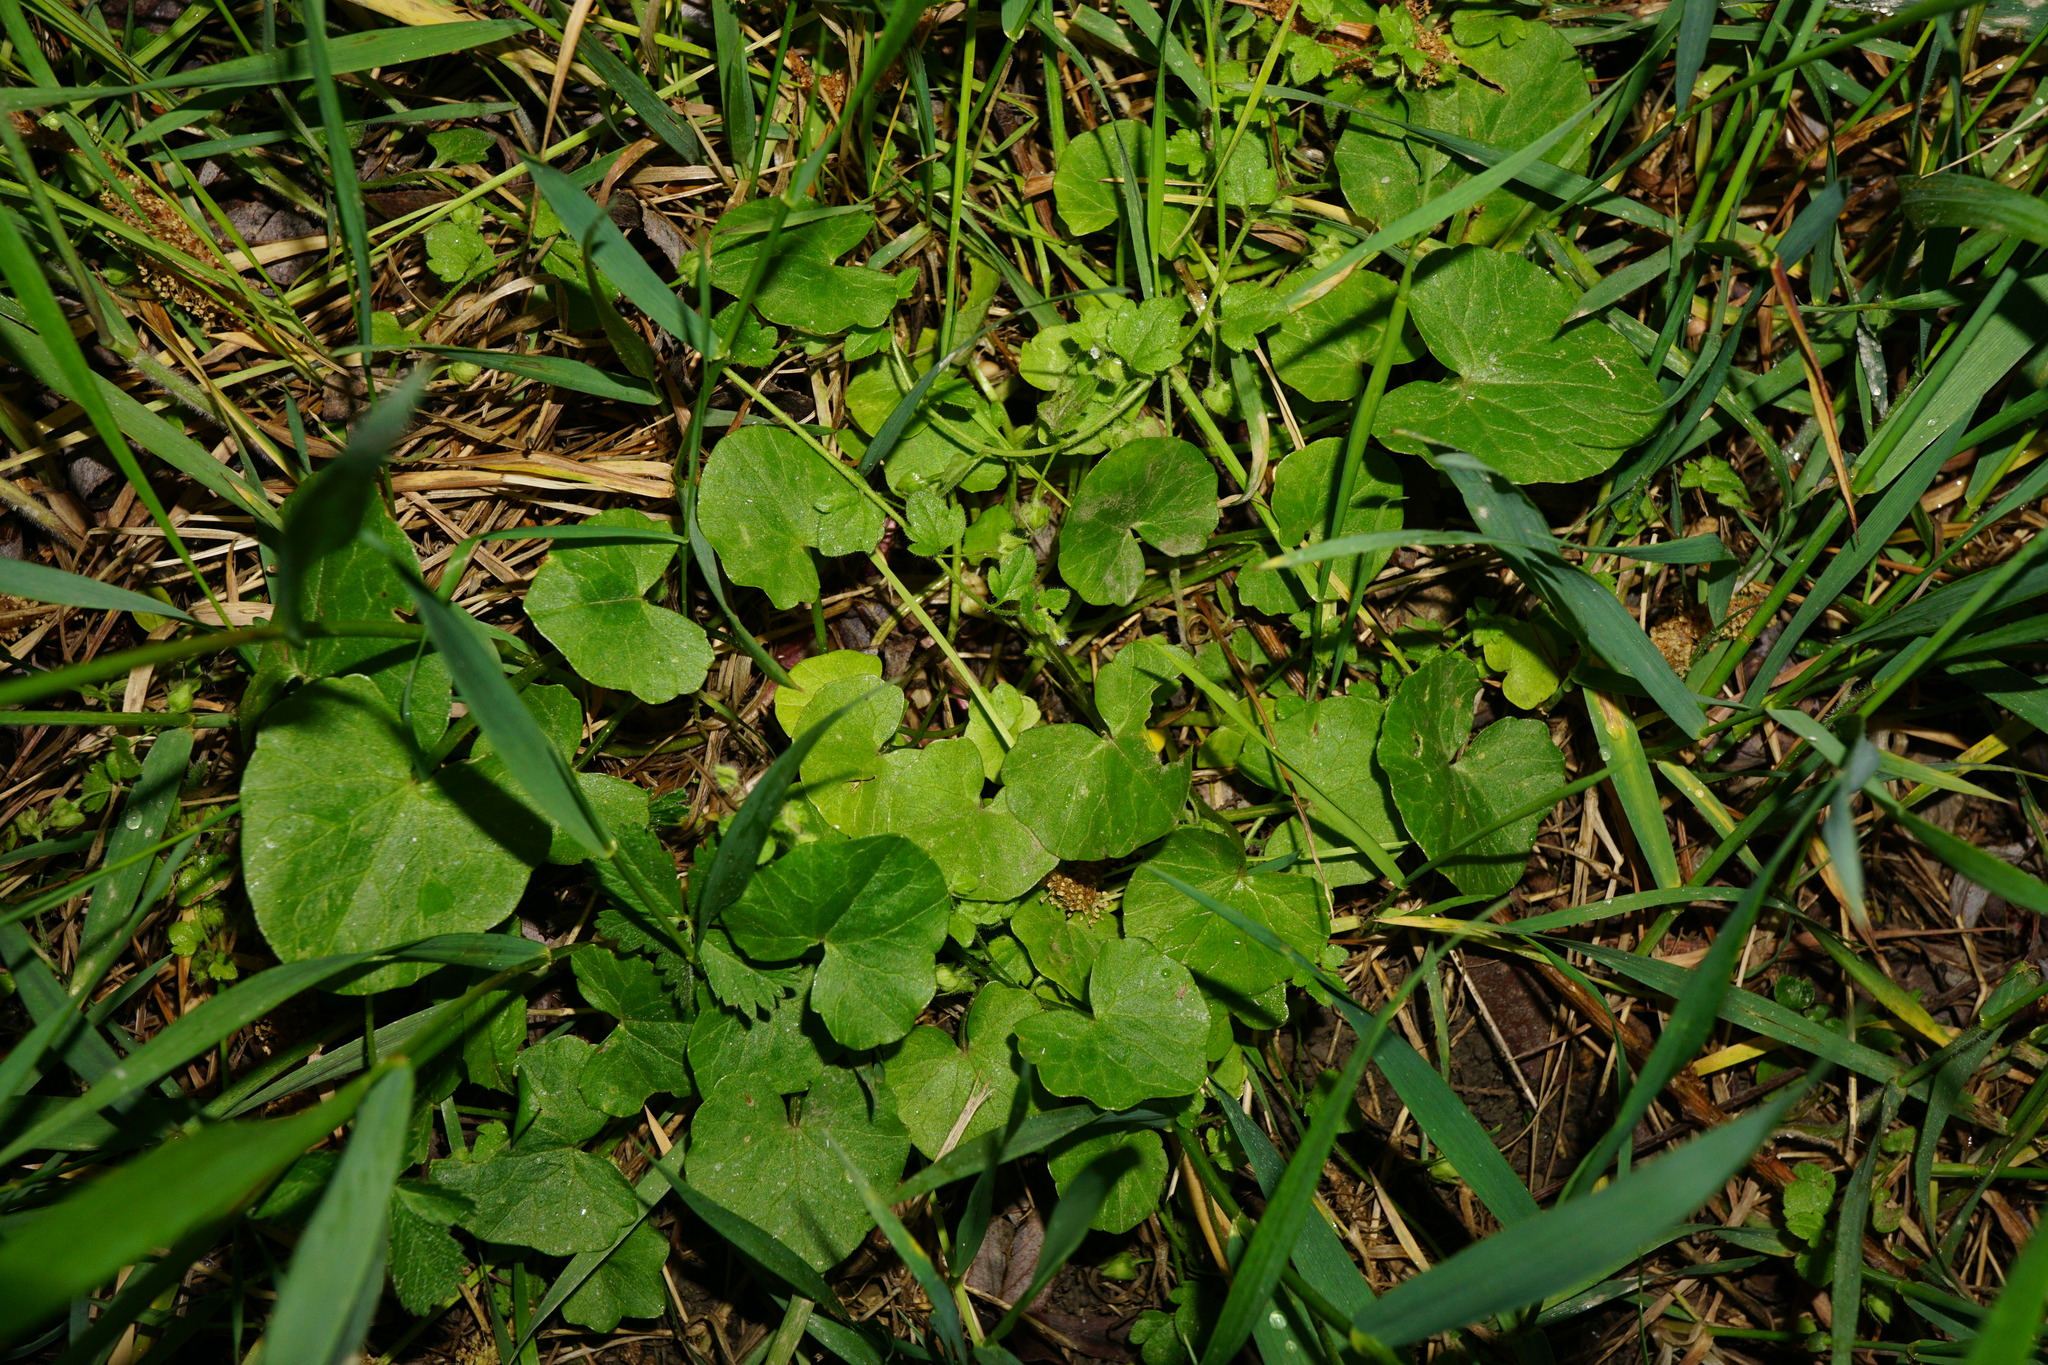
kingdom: Plantae
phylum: Tracheophyta
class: Magnoliopsida
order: Ranunculales
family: Ranunculaceae
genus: Ficaria
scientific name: Ficaria verna
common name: Lesser celandine
